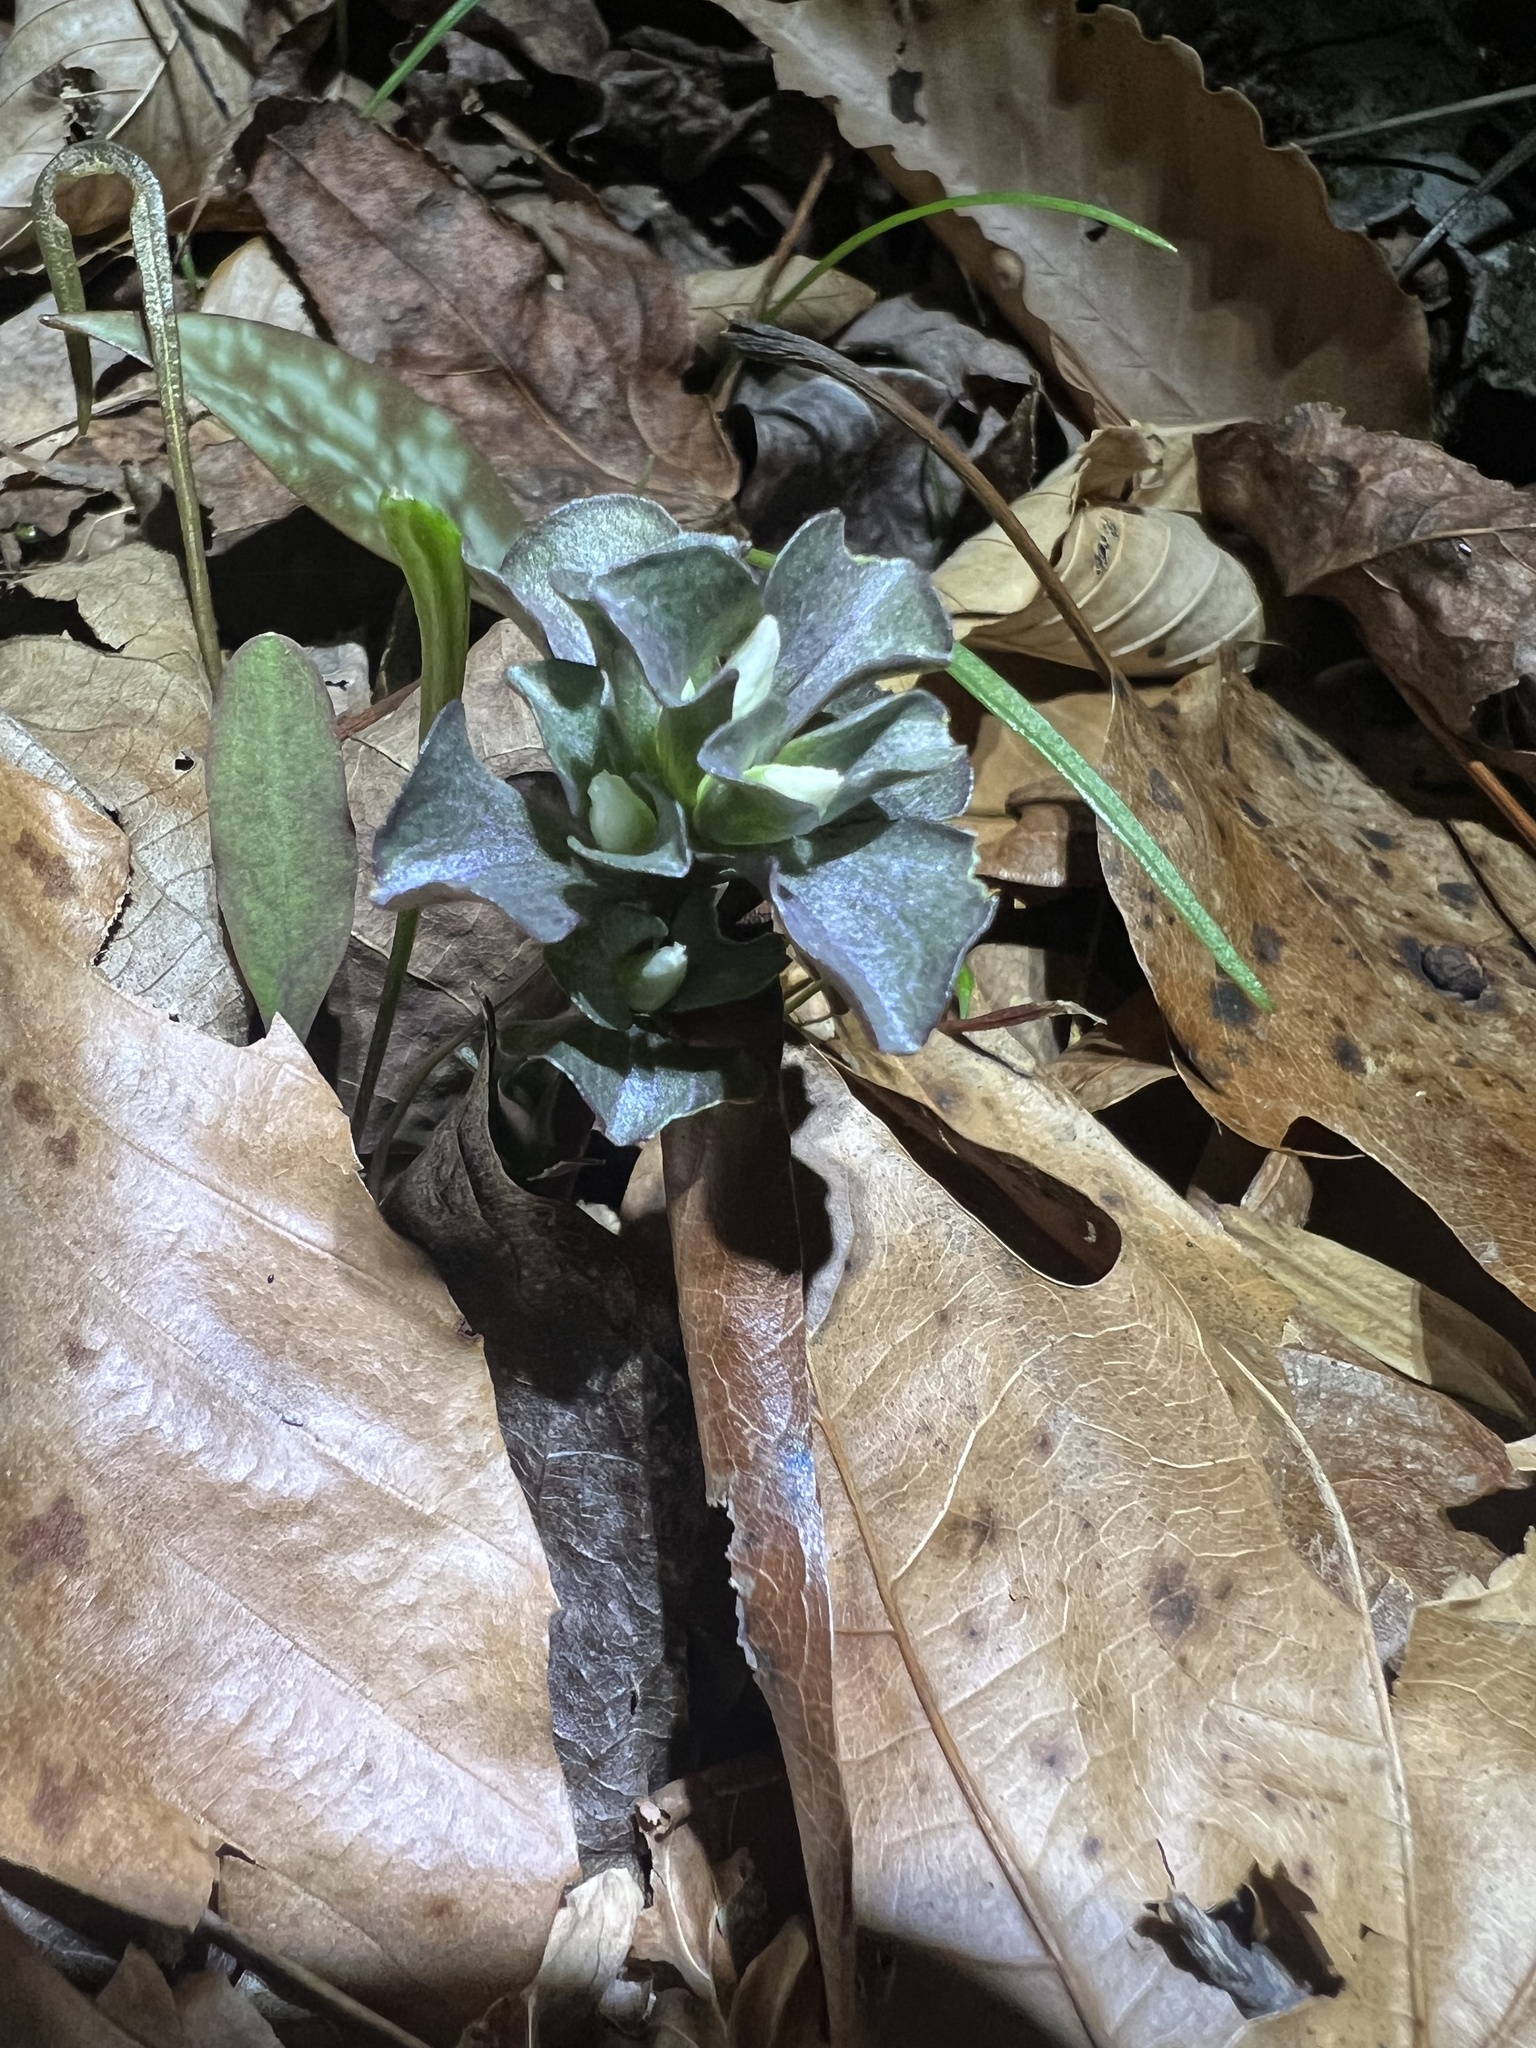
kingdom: Plantae
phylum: Tracheophyta
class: Magnoliopsida
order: Gentianales
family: Gentianaceae
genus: Obolaria
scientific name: Obolaria virginica
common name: Pennywort
